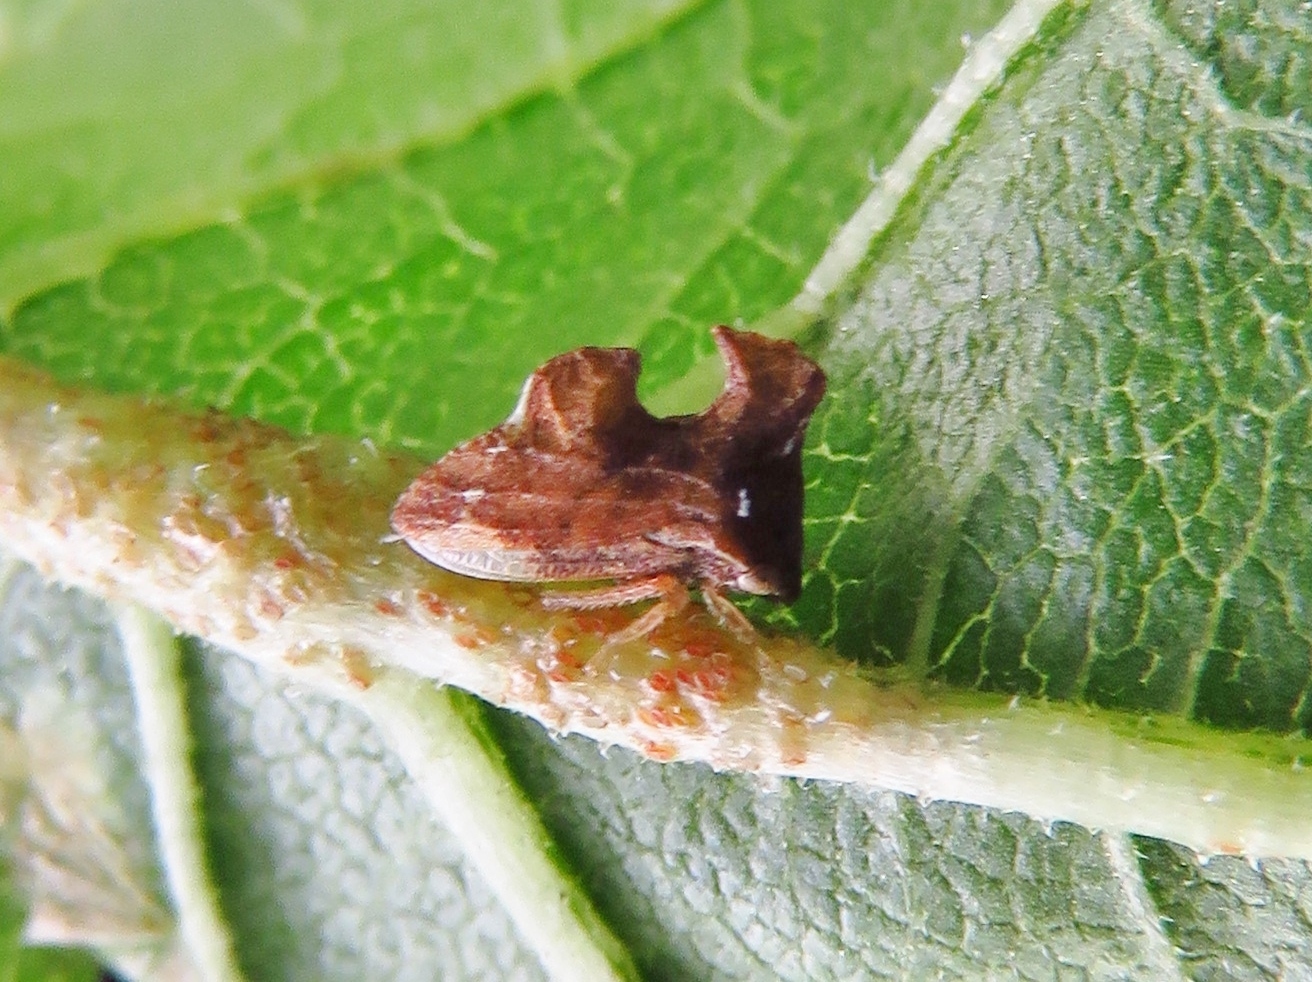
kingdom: Animalia
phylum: Arthropoda
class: Insecta
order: Hemiptera
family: Membracidae
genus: Entylia
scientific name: Entylia carinata
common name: Keeled treehopper
